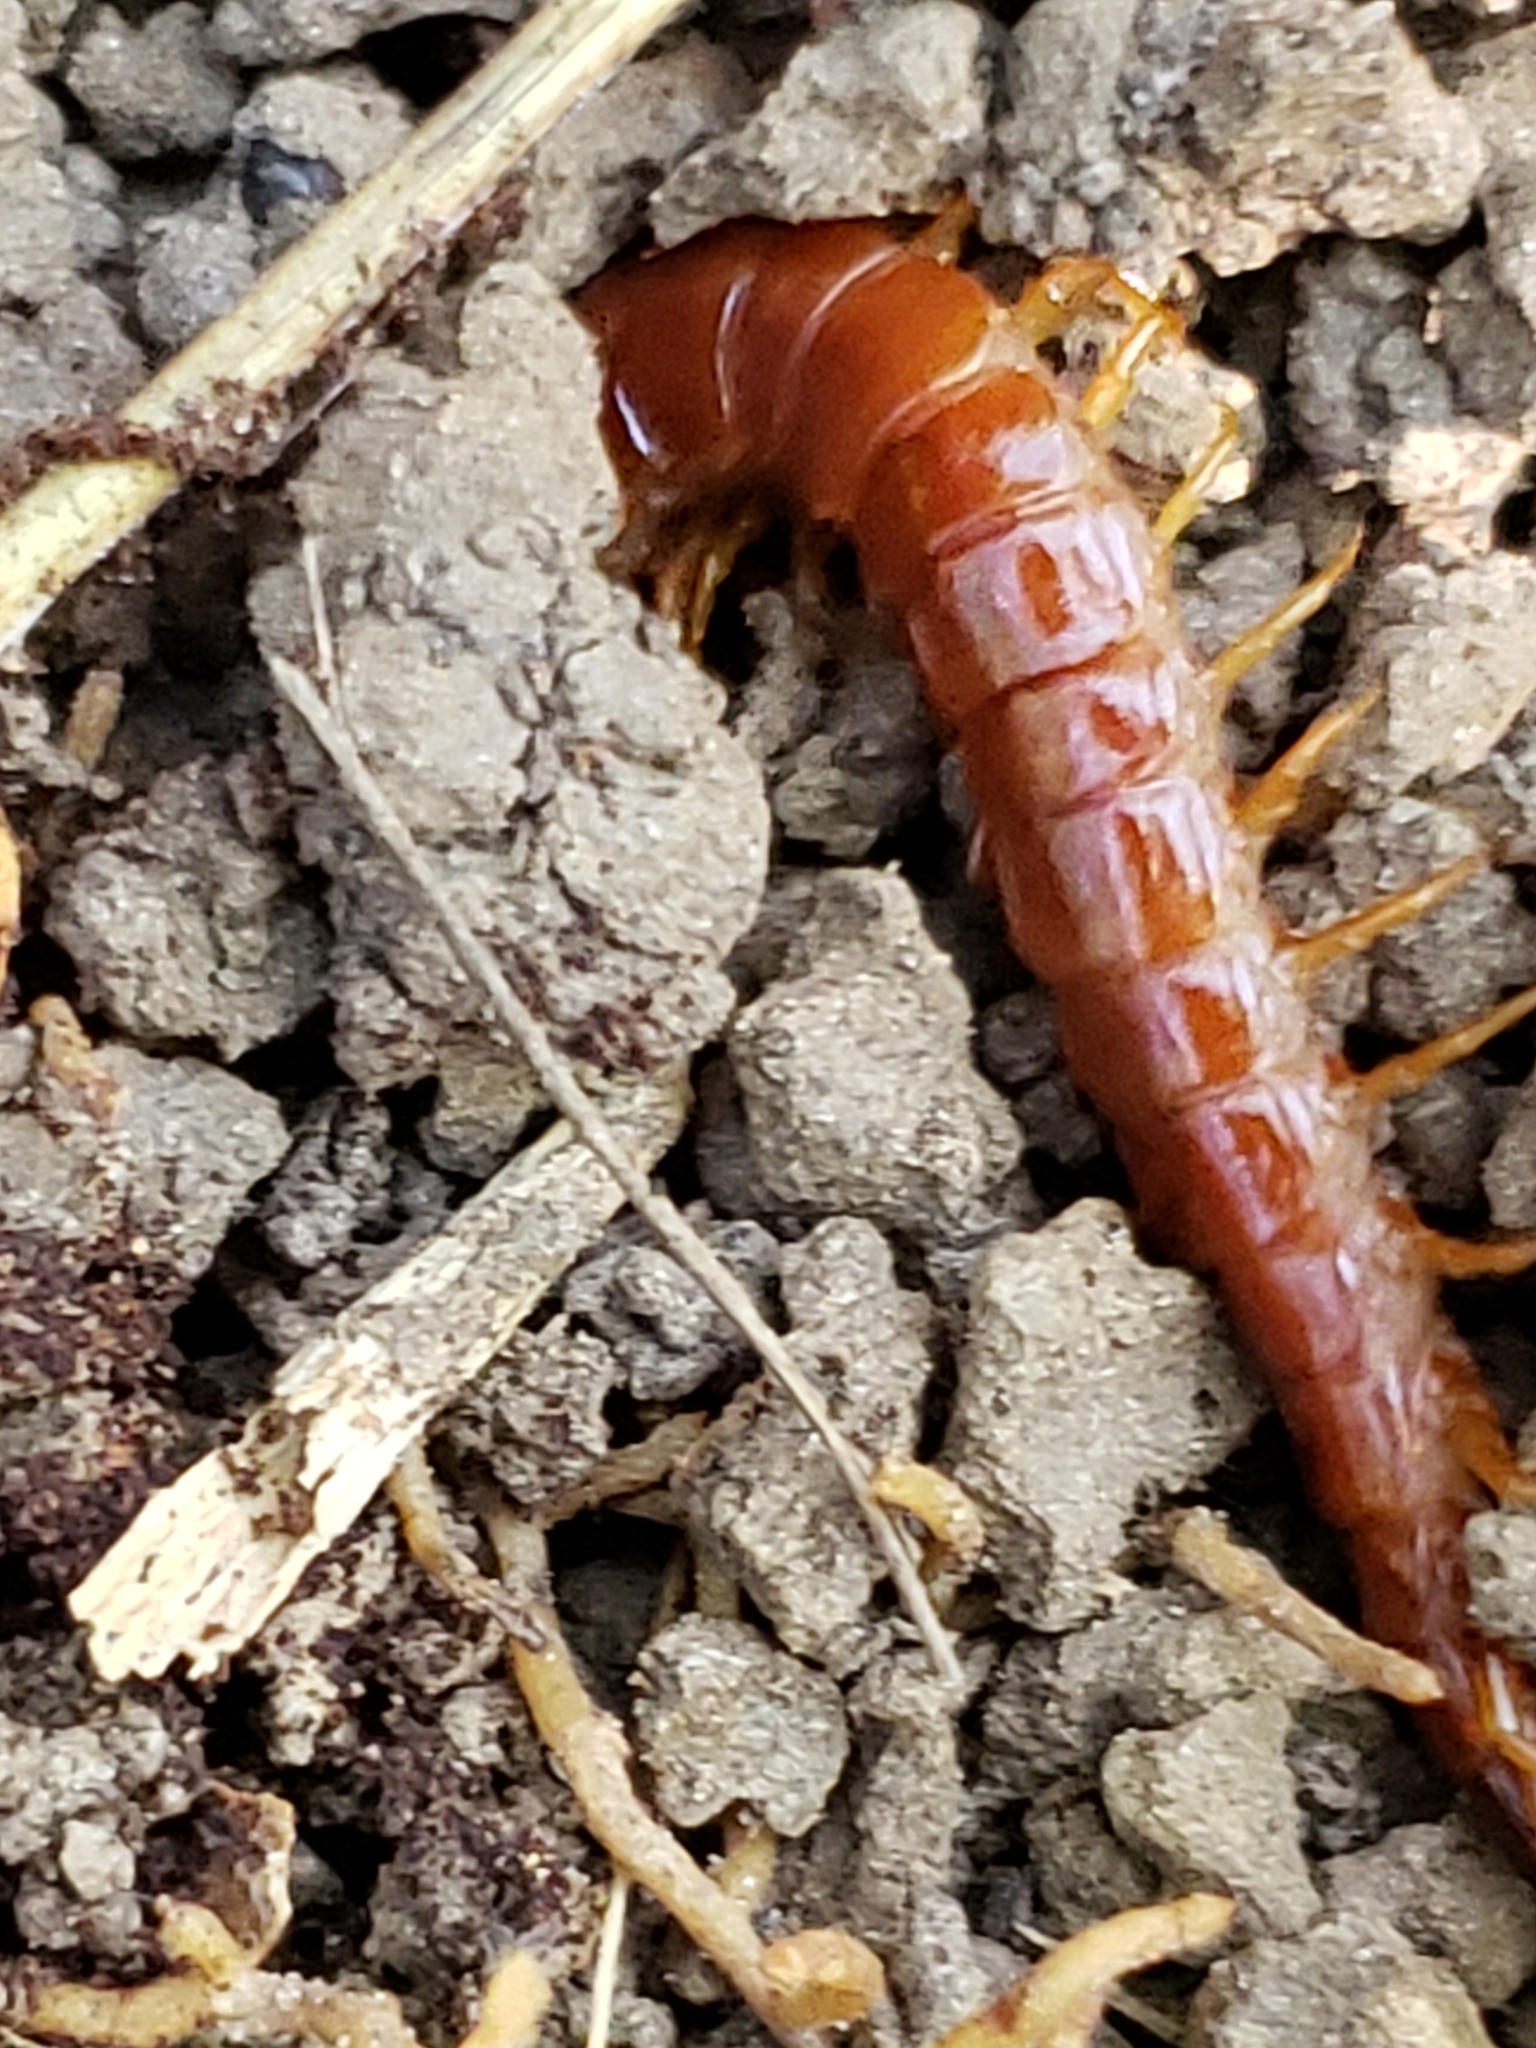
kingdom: Animalia
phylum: Arthropoda
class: Chilopoda
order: Scolopendromorpha
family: Scolopocryptopidae
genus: Scolopocryptops
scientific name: Scolopocryptops sexspinosus
